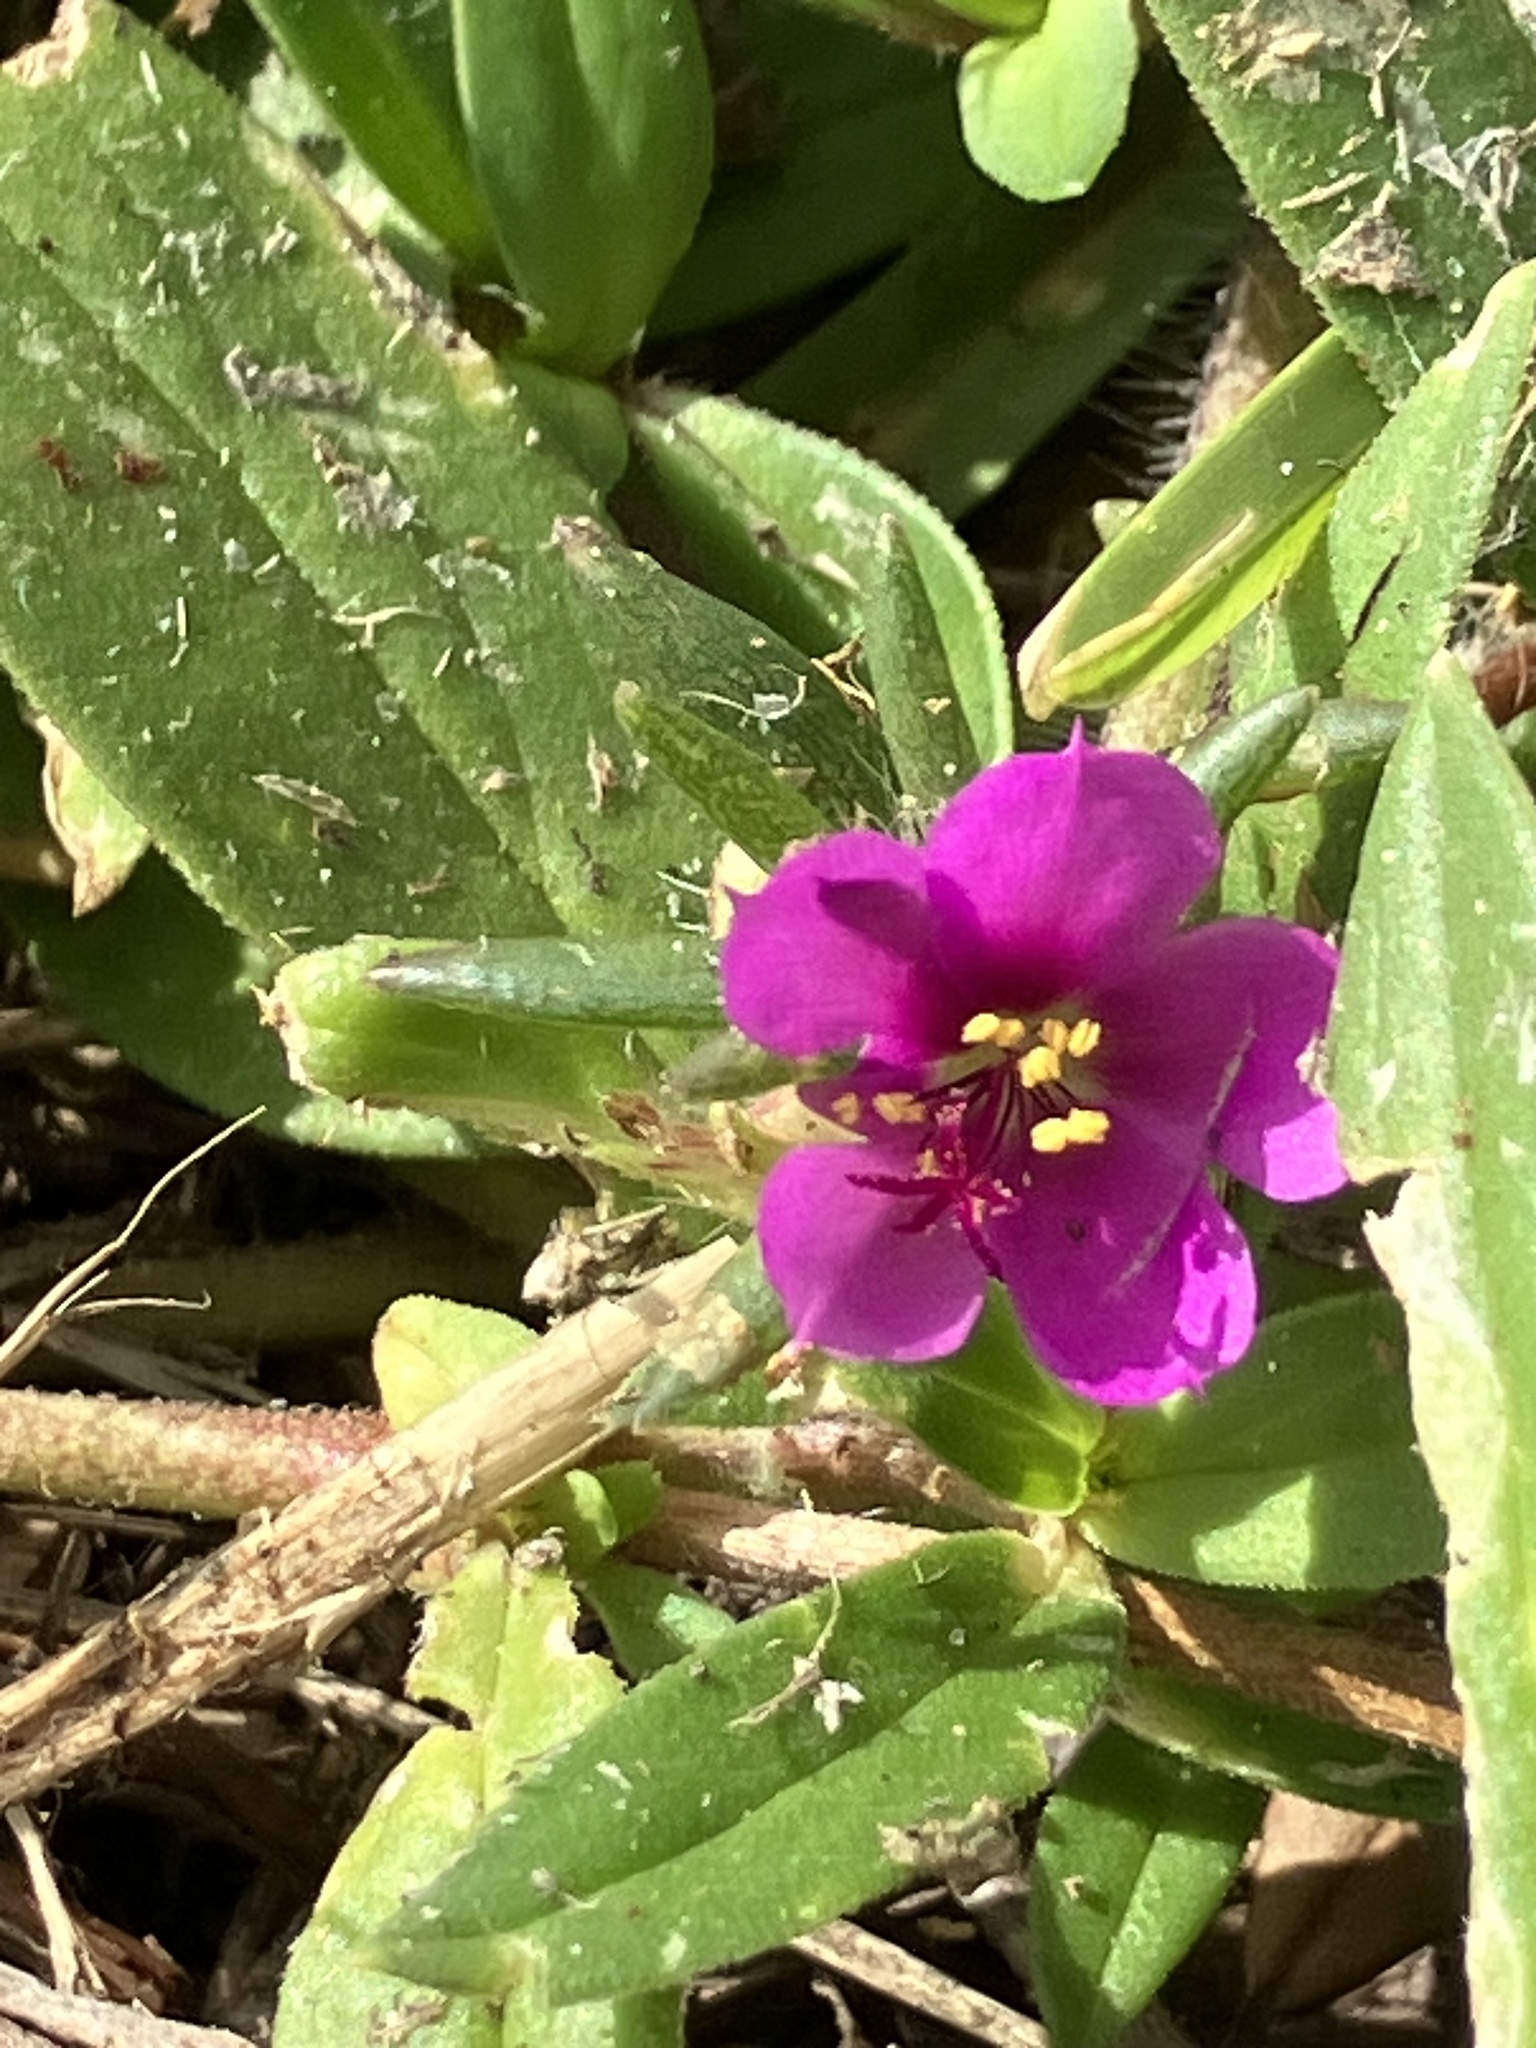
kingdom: Plantae
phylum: Tracheophyta
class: Magnoliopsida
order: Caryophyllales
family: Portulacaceae
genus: Portulaca
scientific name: Portulaca pilosa
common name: Kiss me quick
